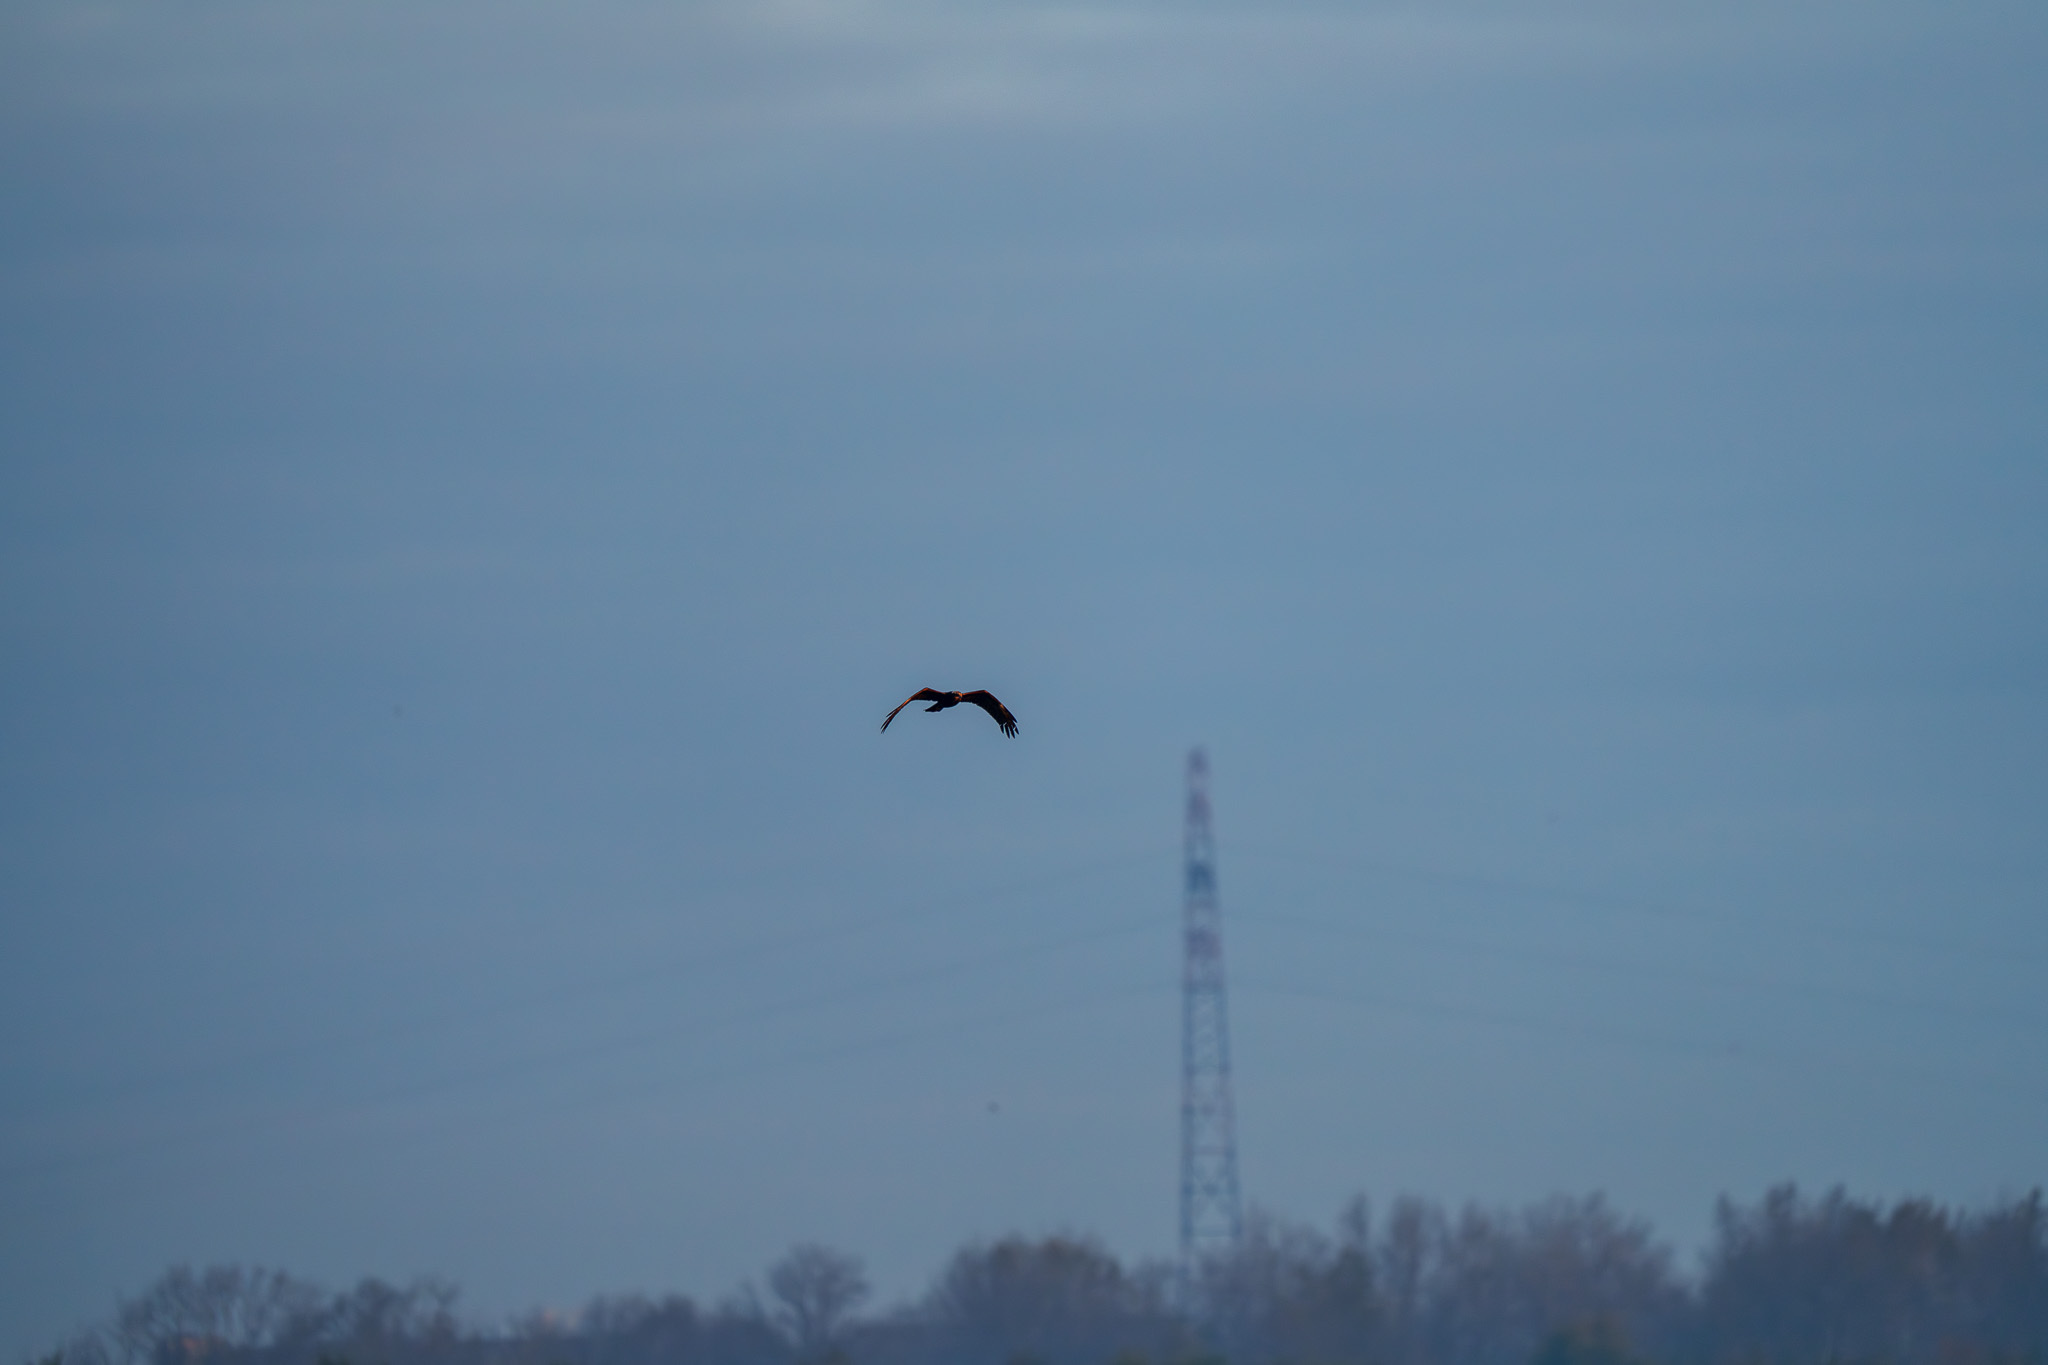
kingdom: Animalia
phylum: Chordata
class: Aves
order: Accipitriformes
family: Accipitridae
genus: Circus
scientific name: Circus aeruginosus
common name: Western marsh harrier
